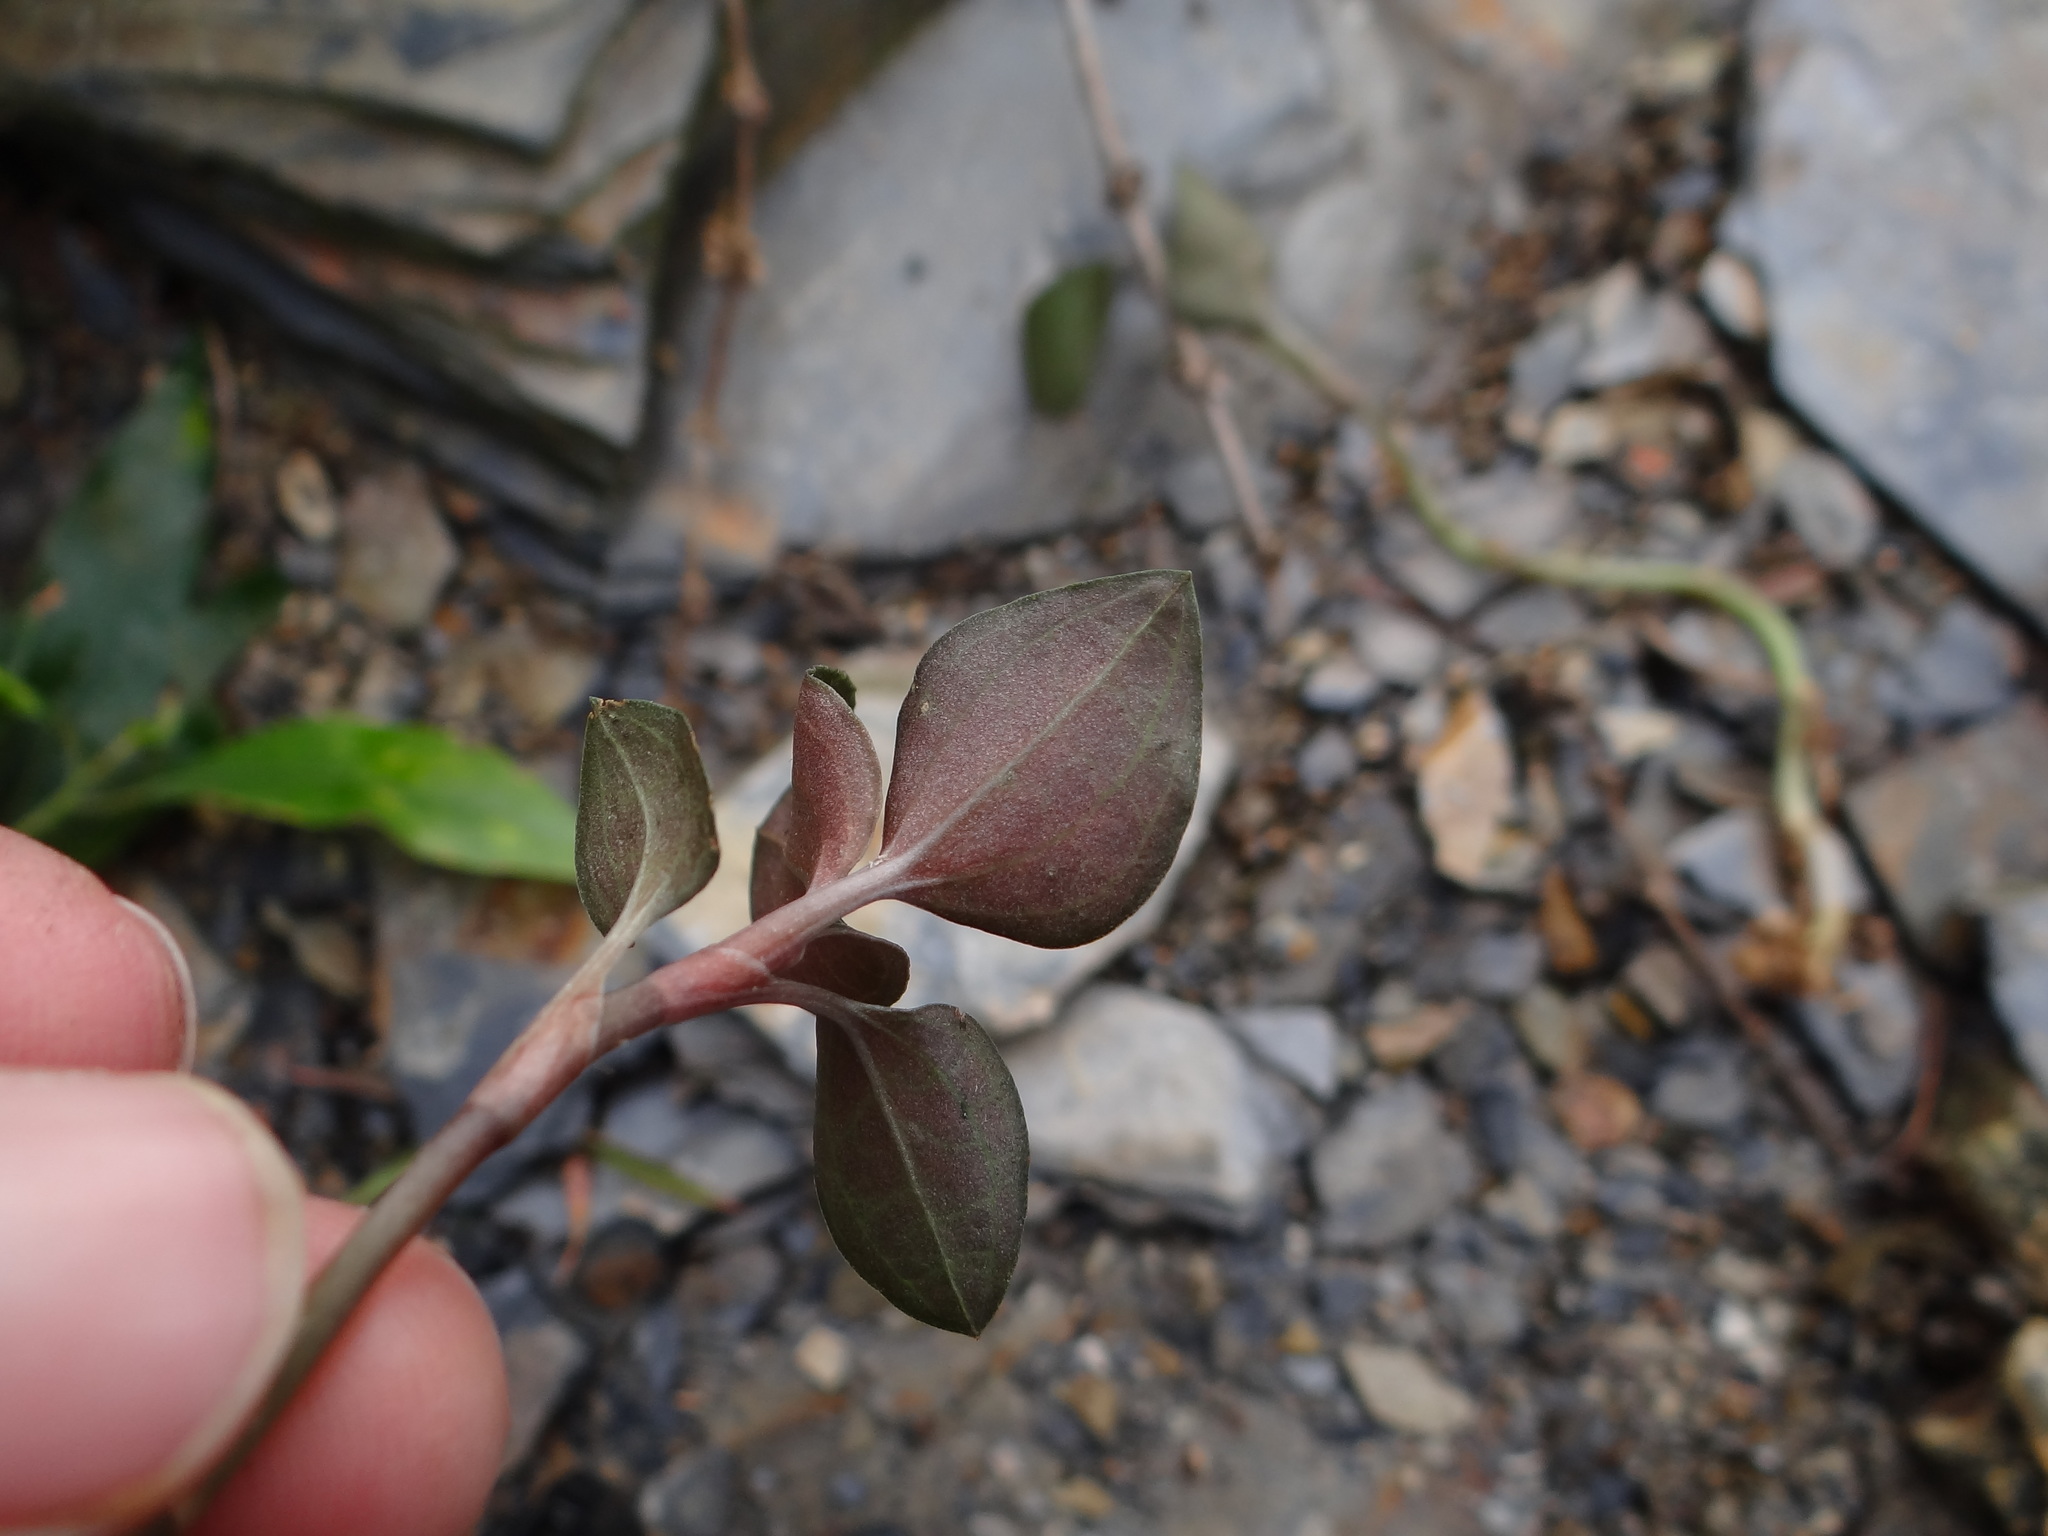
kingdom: Plantae
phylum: Tracheophyta
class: Liliopsida
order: Asparagales
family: Orchidaceae
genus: Anoectochilus
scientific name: Anoectochilus formosanus
